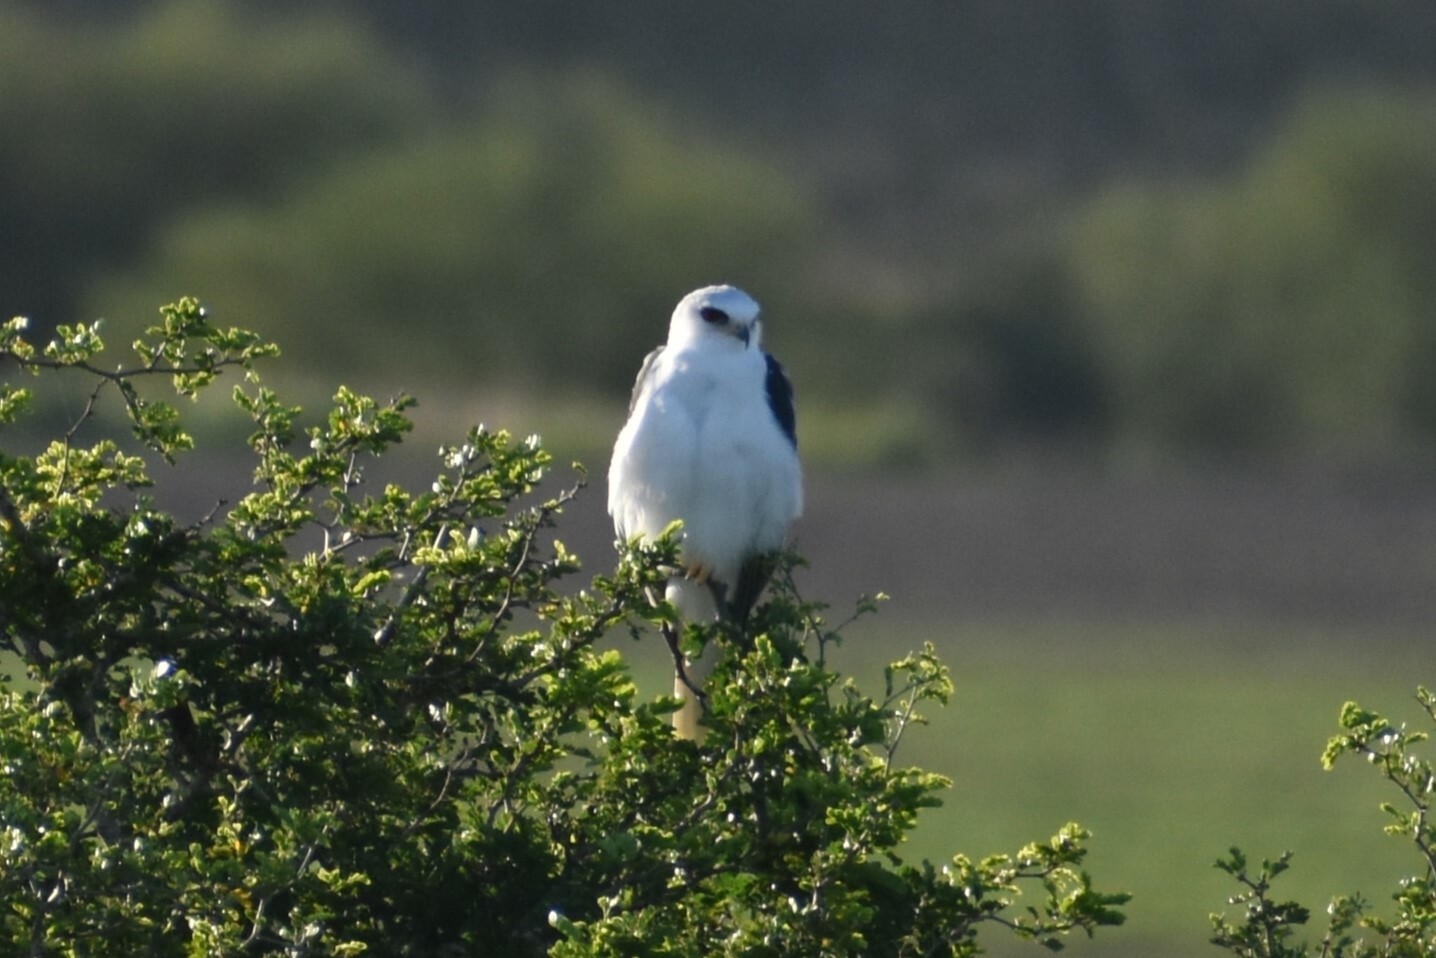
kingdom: Animalia
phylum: Chordata
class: Aves
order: Accipitriformes
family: Accipitridae
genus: Elanus
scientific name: Elanus leucurus
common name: White-tailed kite
